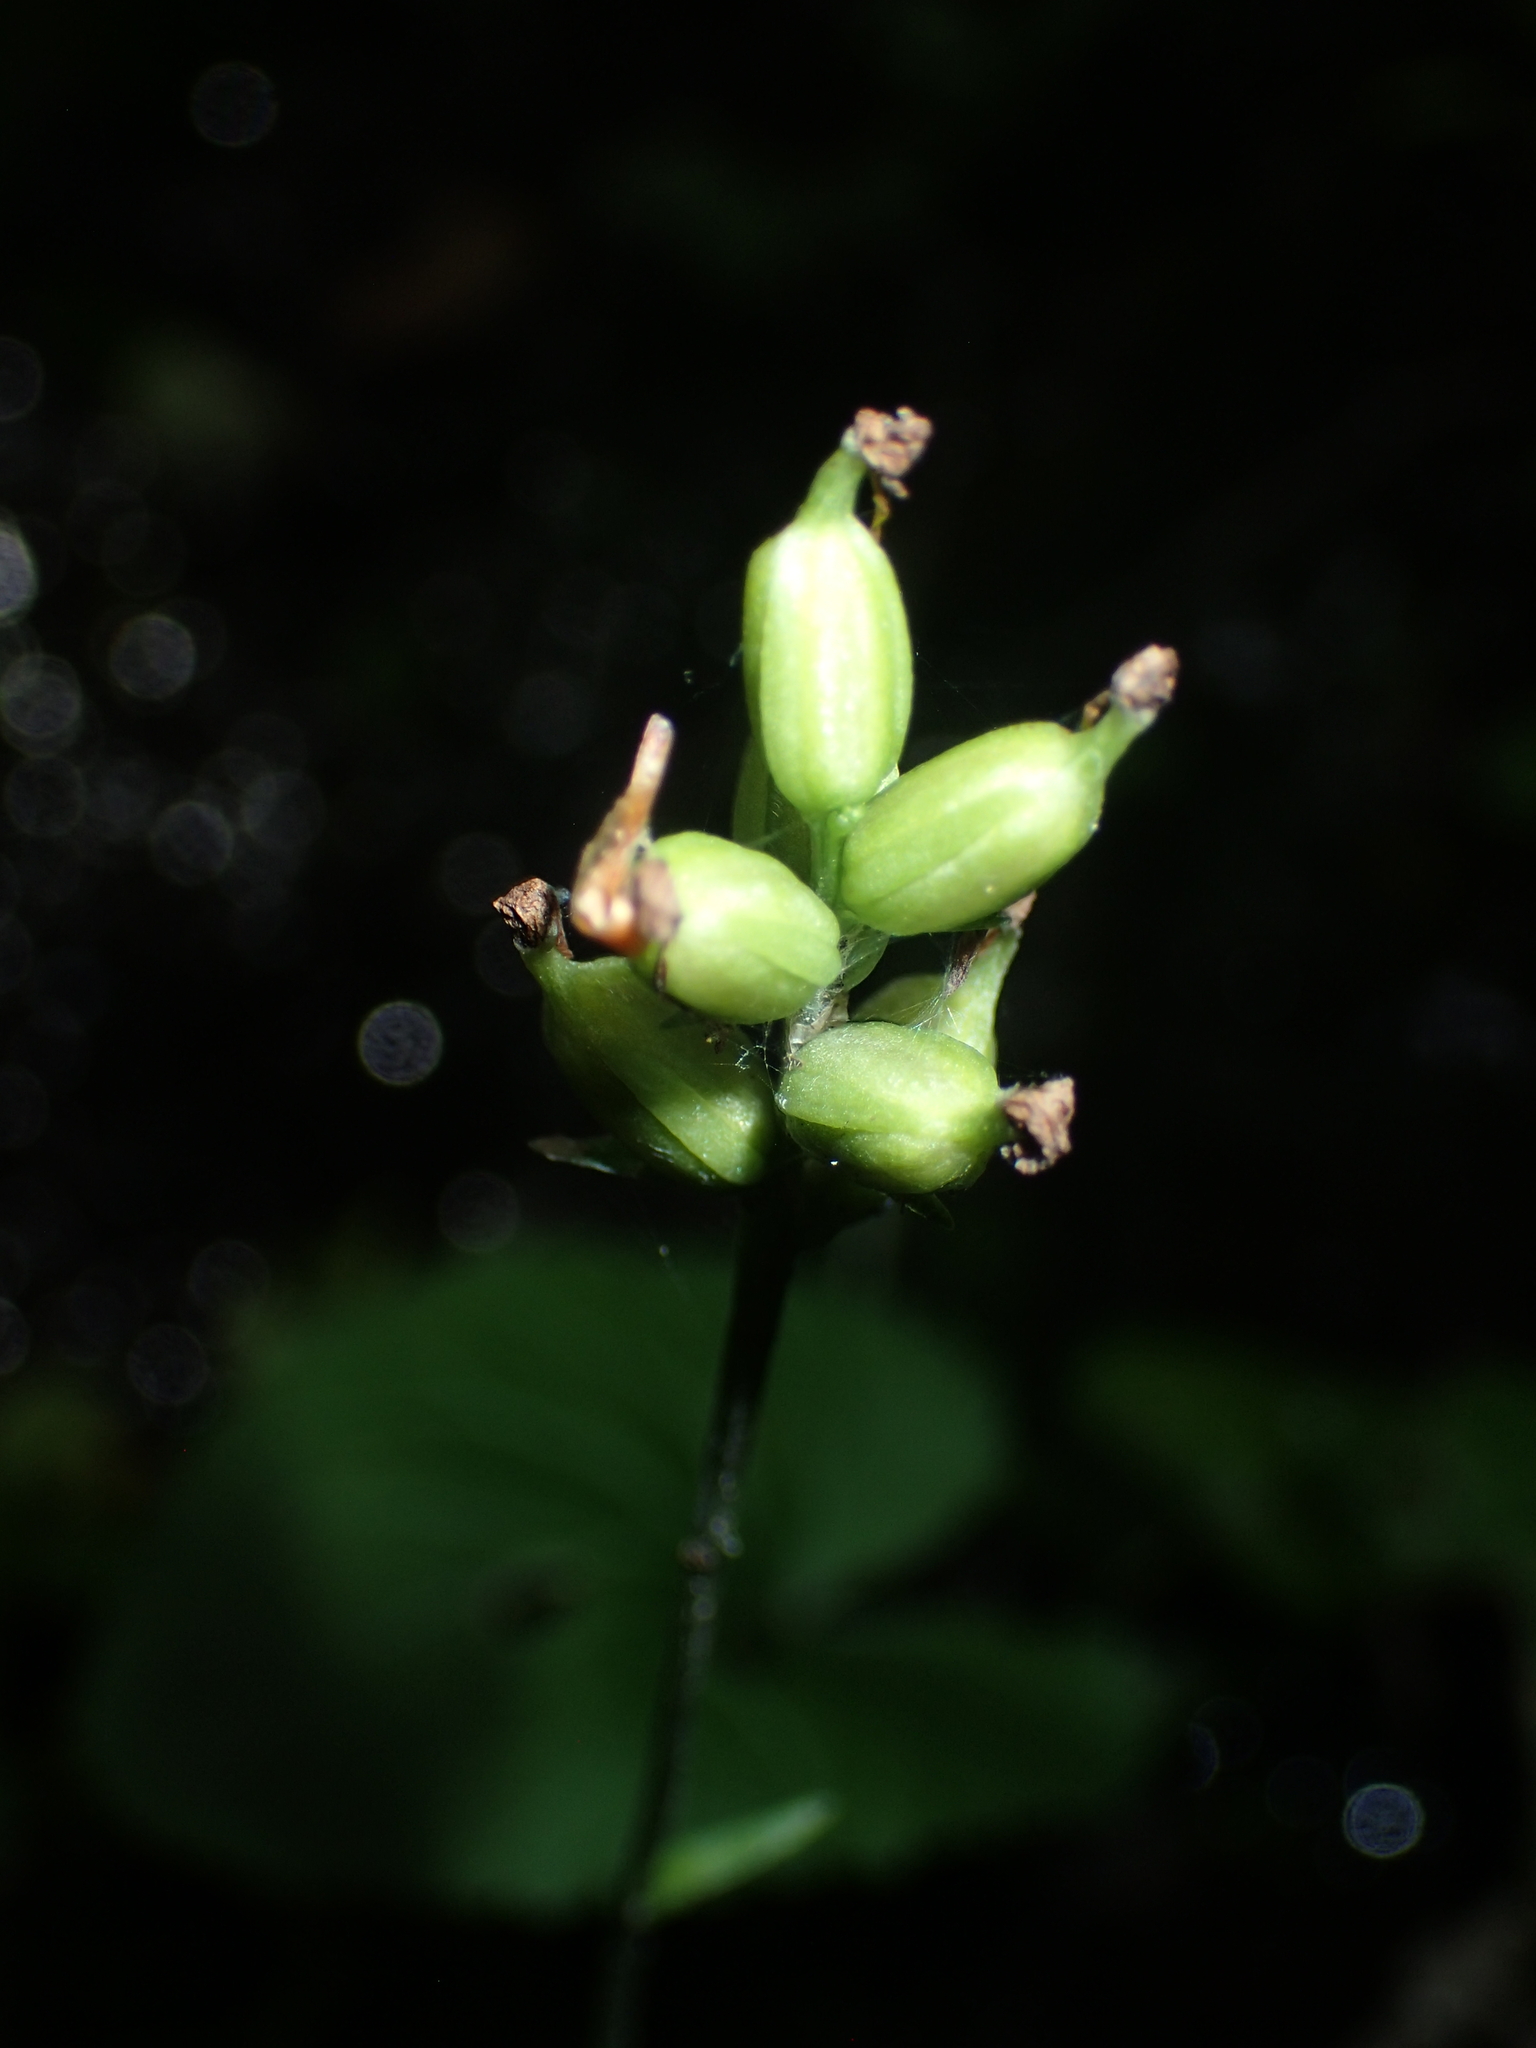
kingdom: Plantae
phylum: Tracheophyta
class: Liliopsida
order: Asparagales
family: Orchidaceae
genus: Platanthera
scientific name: Platanthera clavellata
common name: Club-spur orchid
